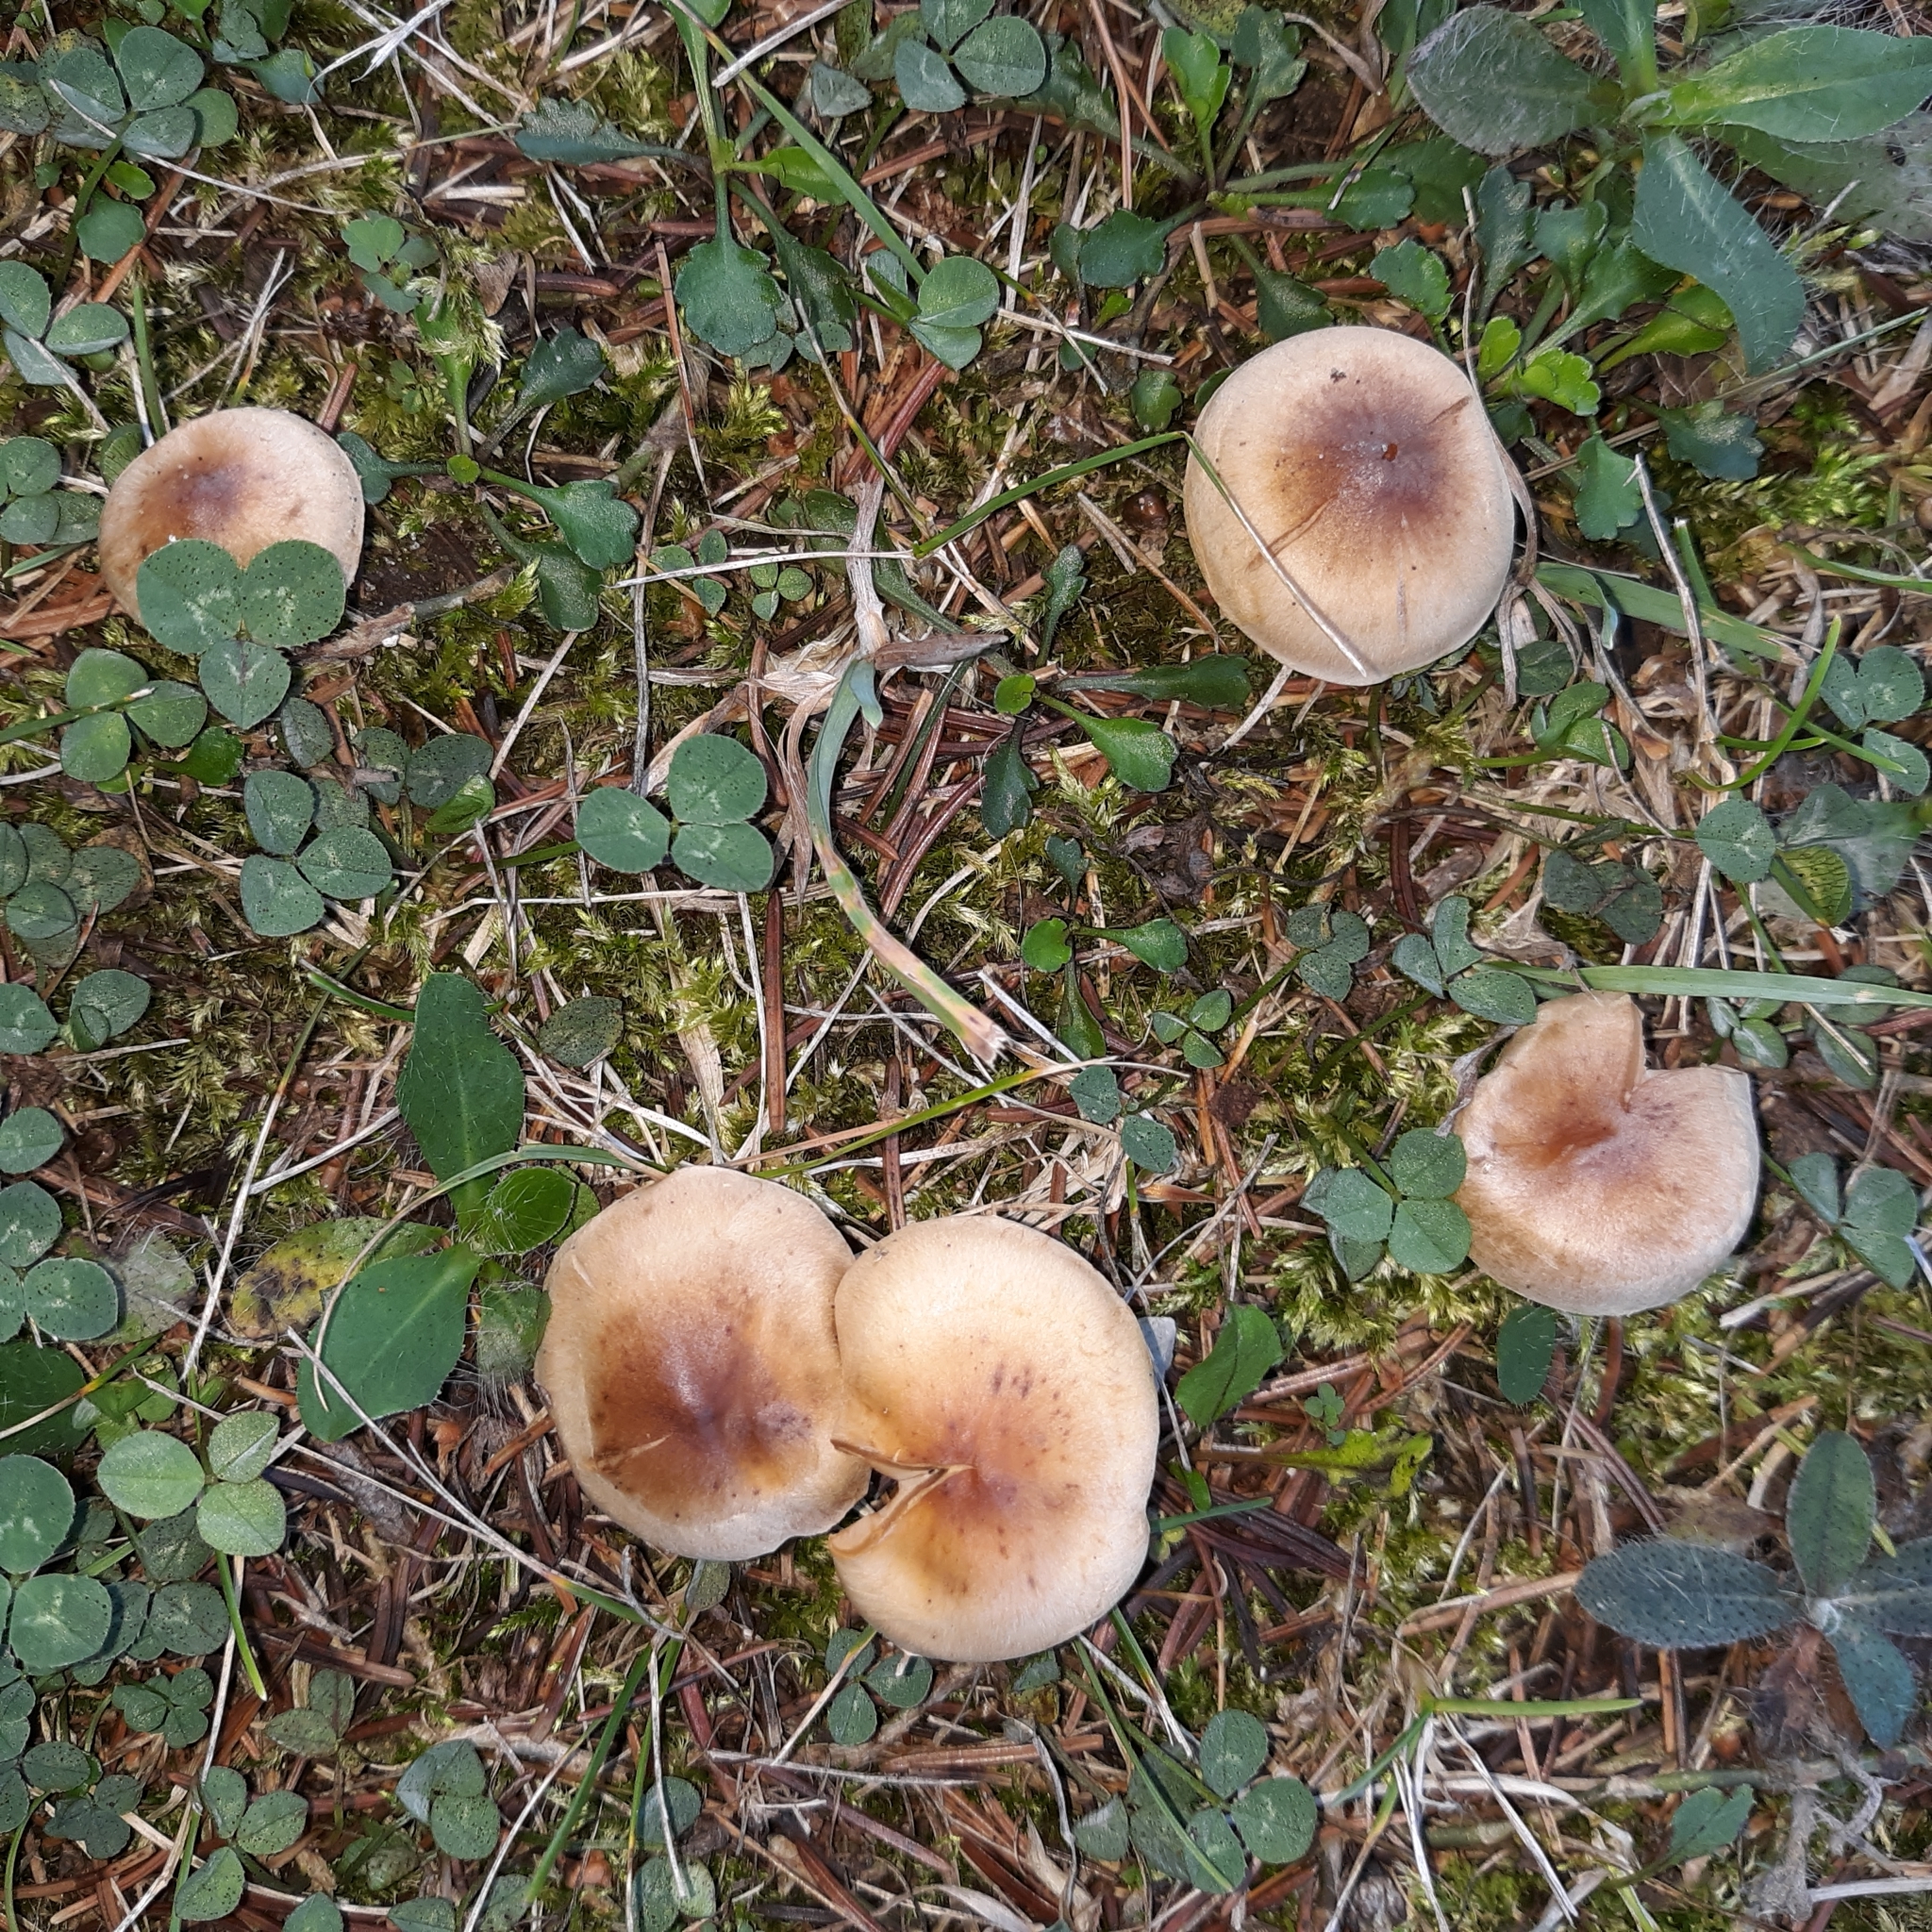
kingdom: Fungi
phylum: Basidiomycota
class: Agaricomycetes
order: Agaricales
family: Strophariaceae
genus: Pholiota
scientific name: Pholiota spumosa
